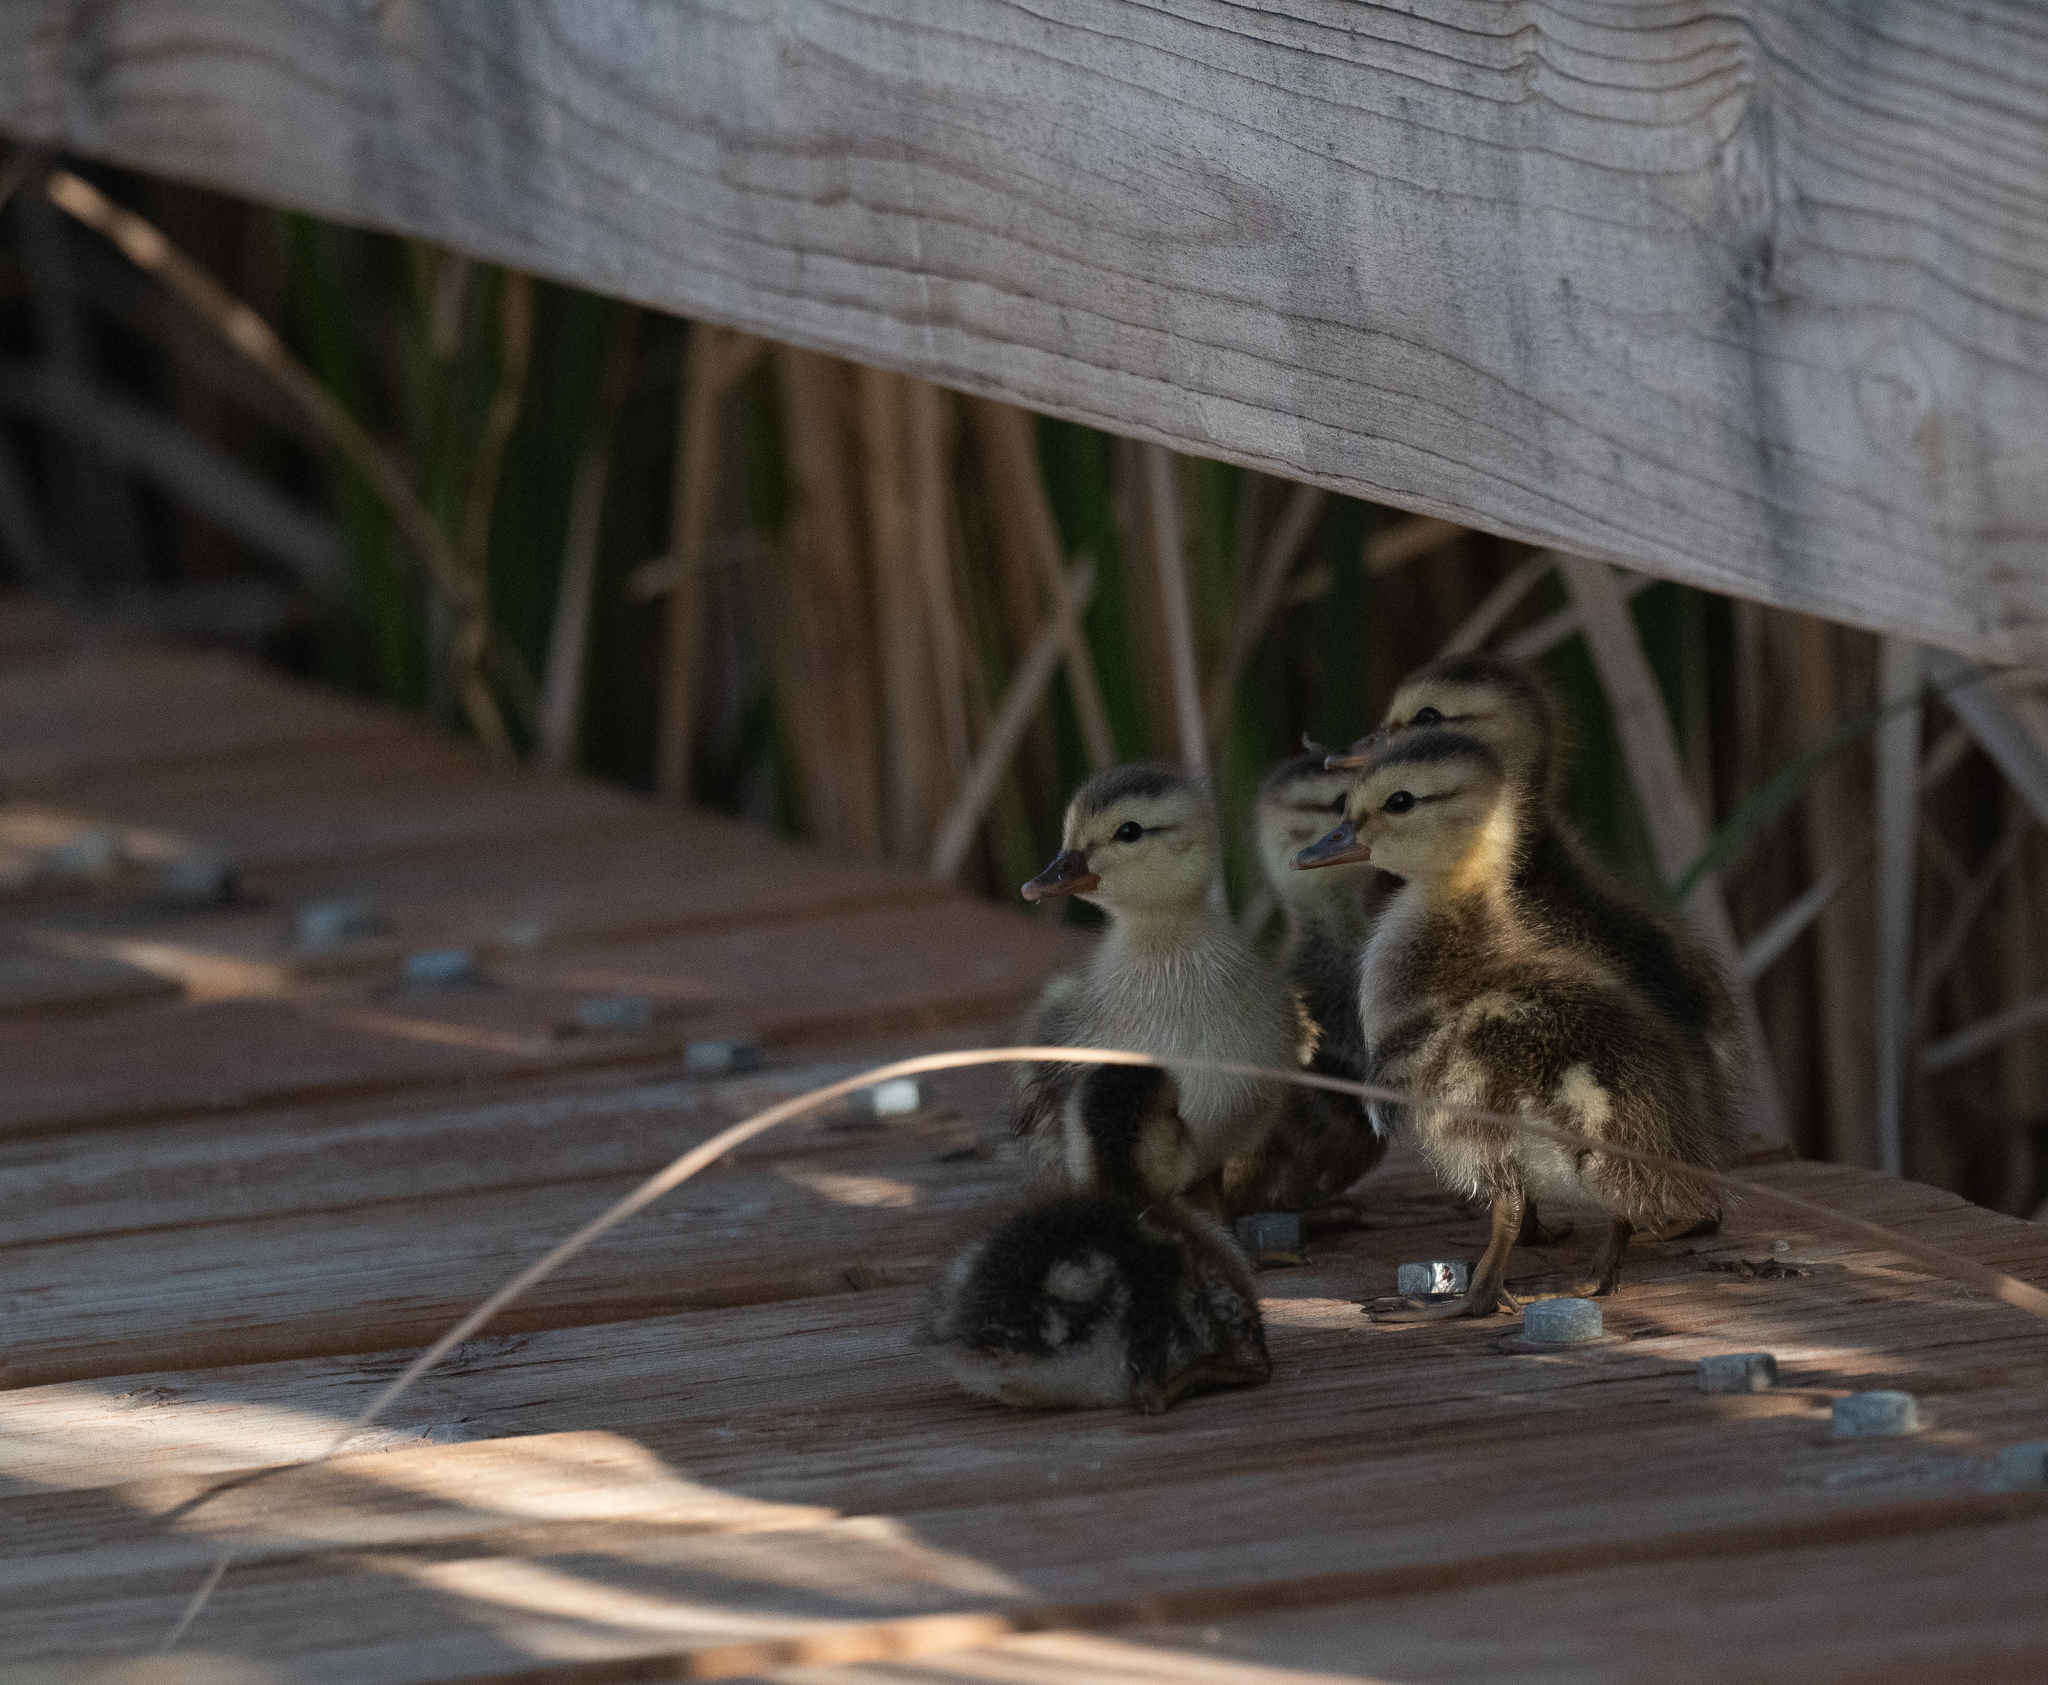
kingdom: Animalia
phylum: Chordata
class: Aves
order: Anseriformes
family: Anatidae
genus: Anas
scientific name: Anas platyrhynchos
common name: Mallard
